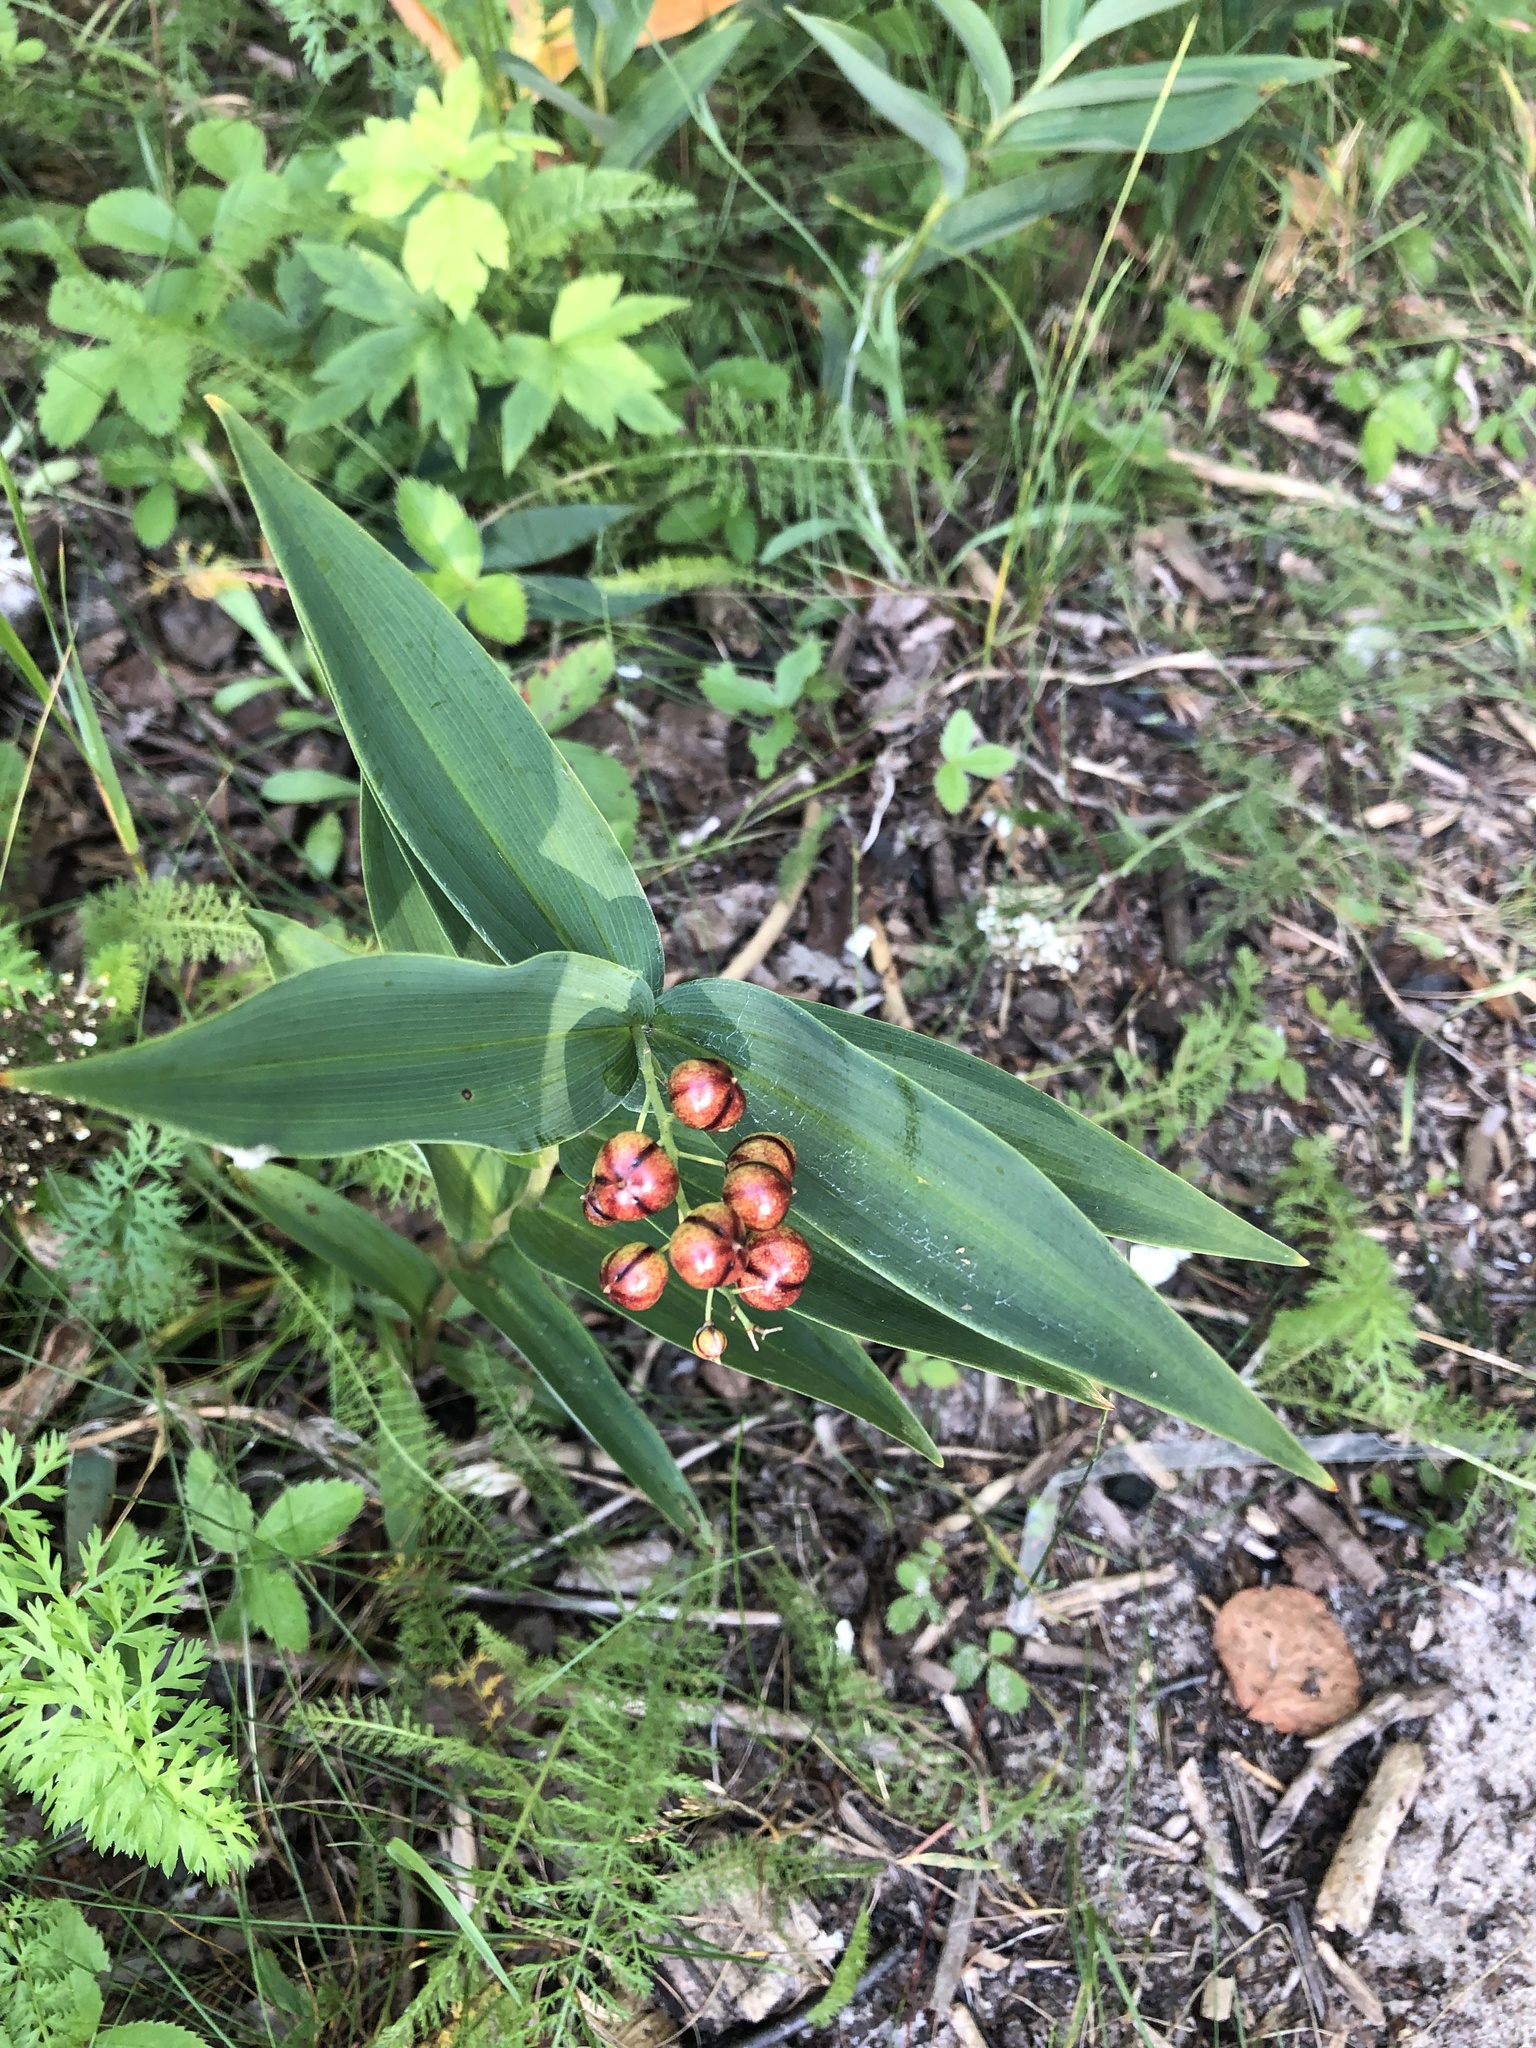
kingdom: Plantae
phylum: Tracheophyta
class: Liliopsida
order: Asparagales
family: Asparagaceae
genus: Maianthemum
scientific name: Maianthemum stellatum
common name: Little false solomon's seal
